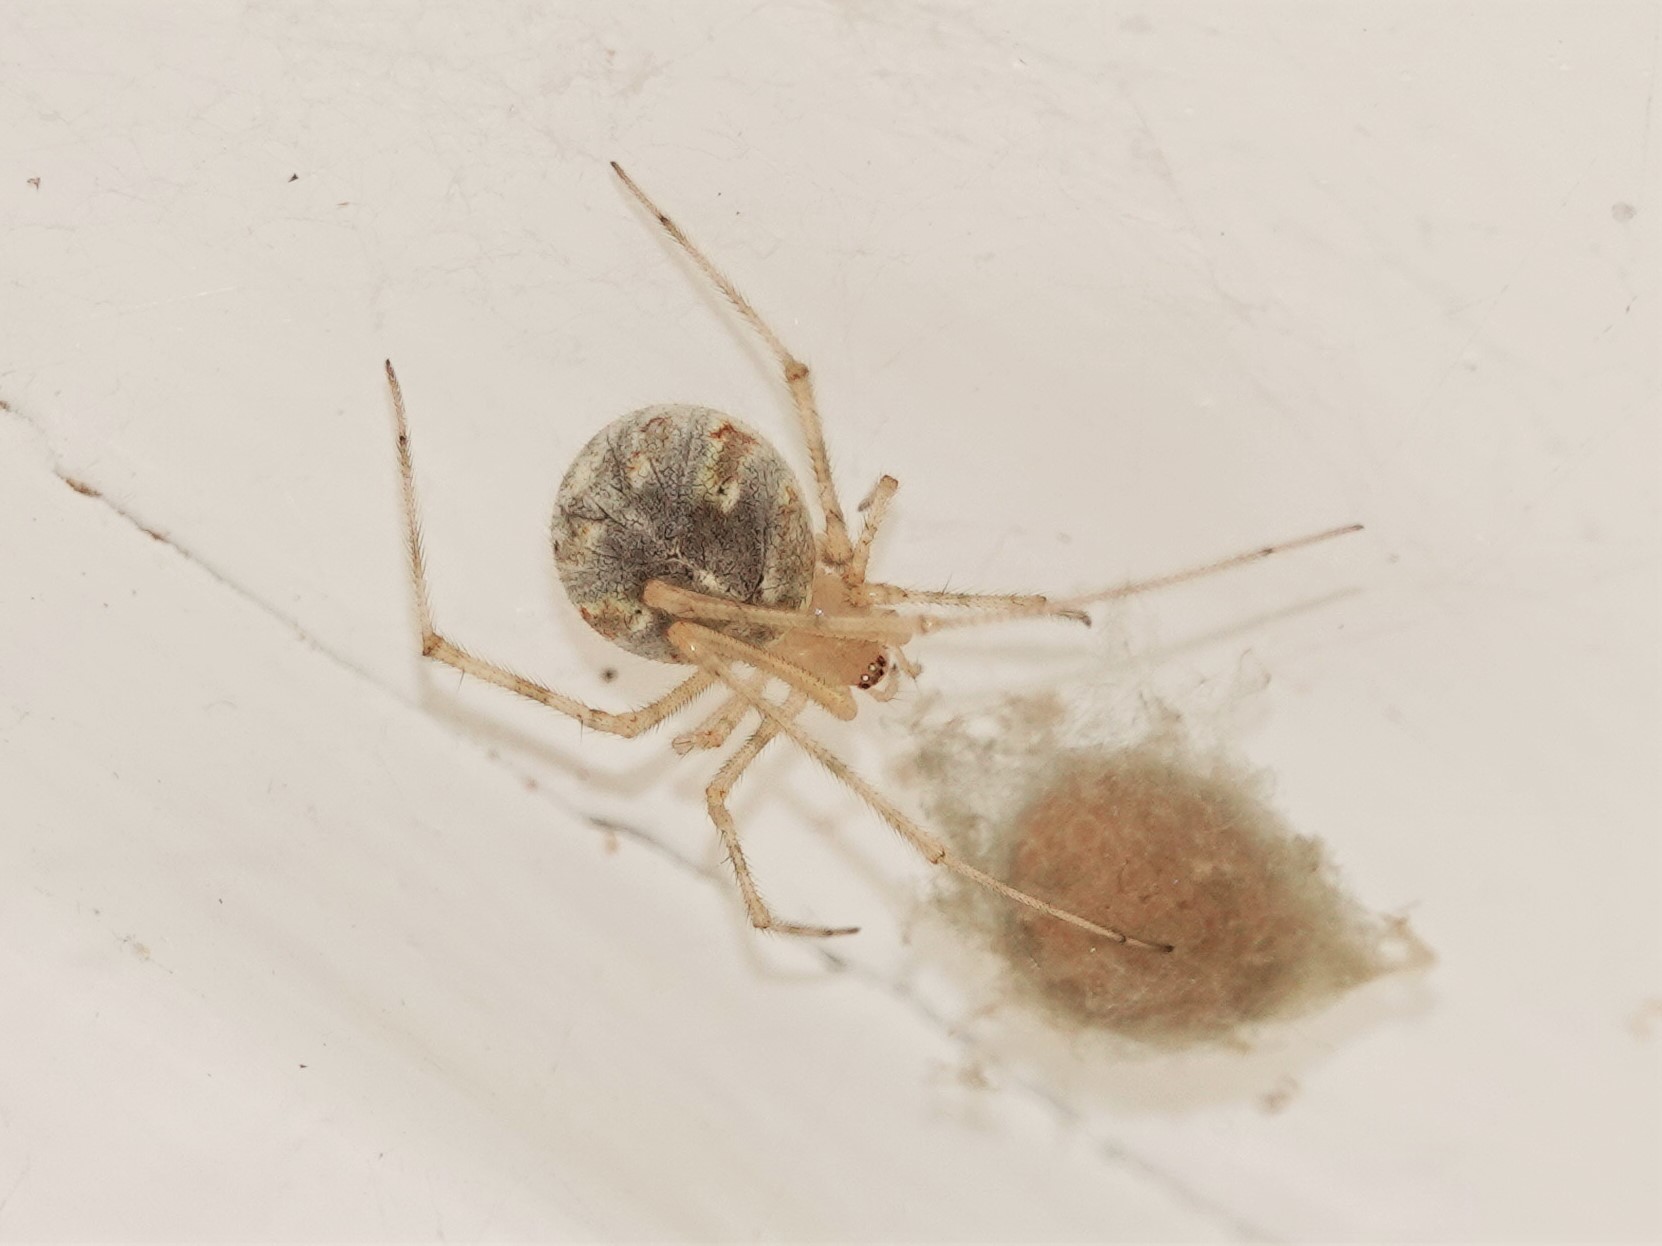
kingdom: Animalia
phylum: Arthropoda
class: Arachnida
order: Araneae
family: Theridiidae
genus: Cryptachaea
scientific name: Cryptachaea gigantipes
